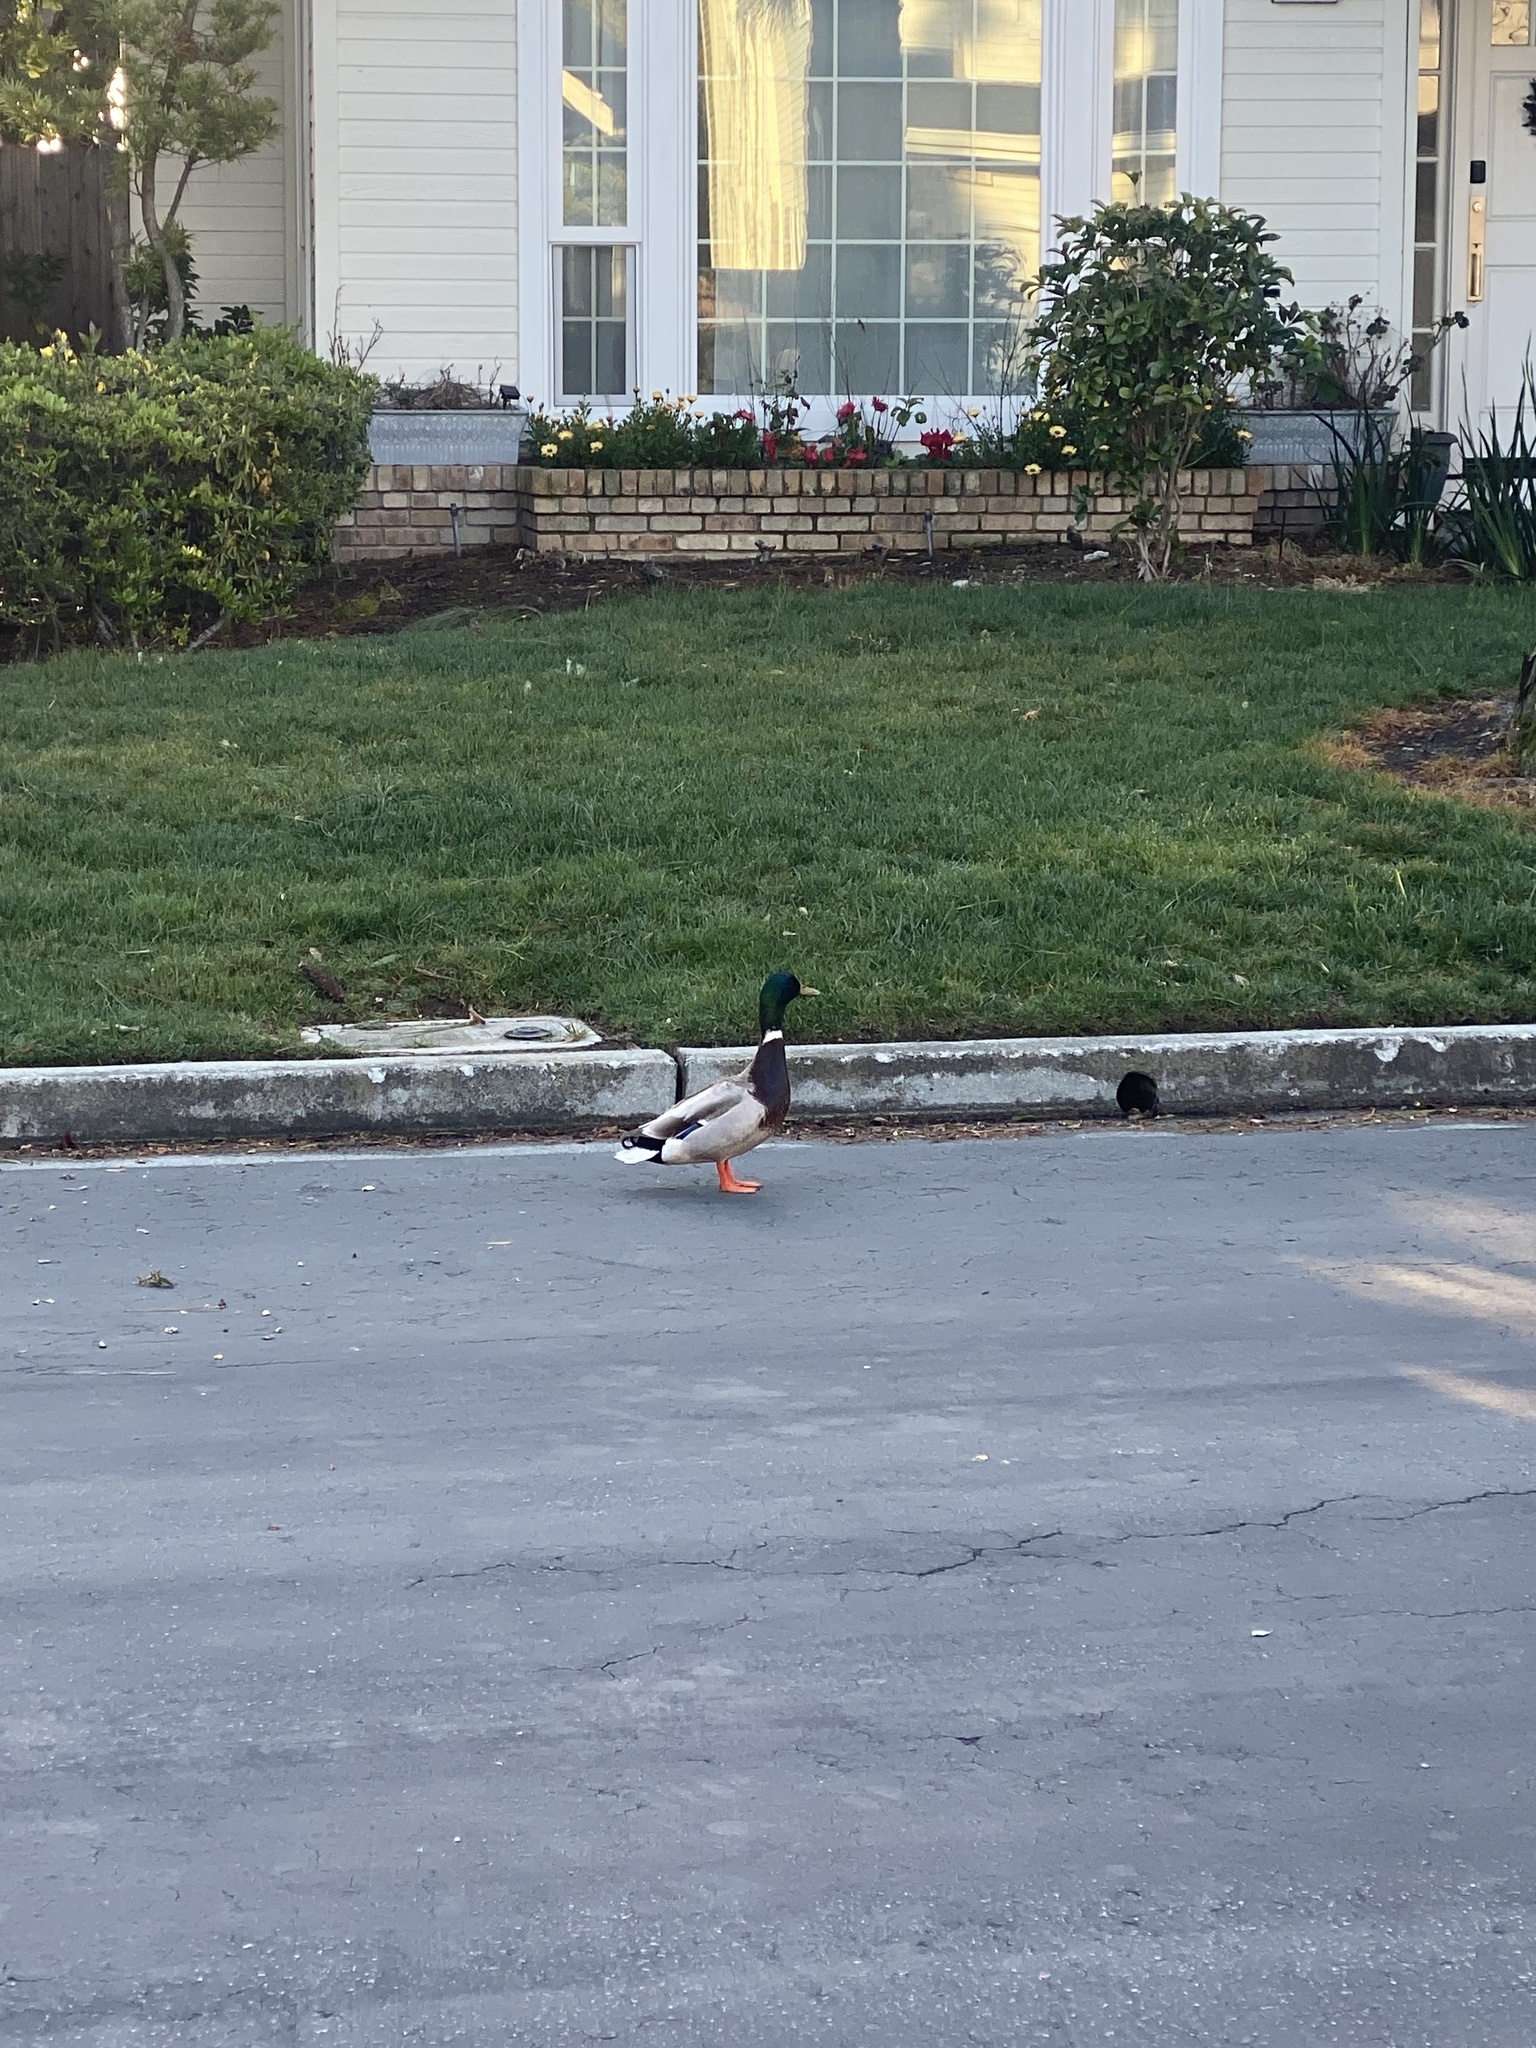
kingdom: Animalia
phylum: Chordata
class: Aves
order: Anseriformes
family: Anatidae
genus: Anas
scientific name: Anas platyrhynchos
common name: Mallard
